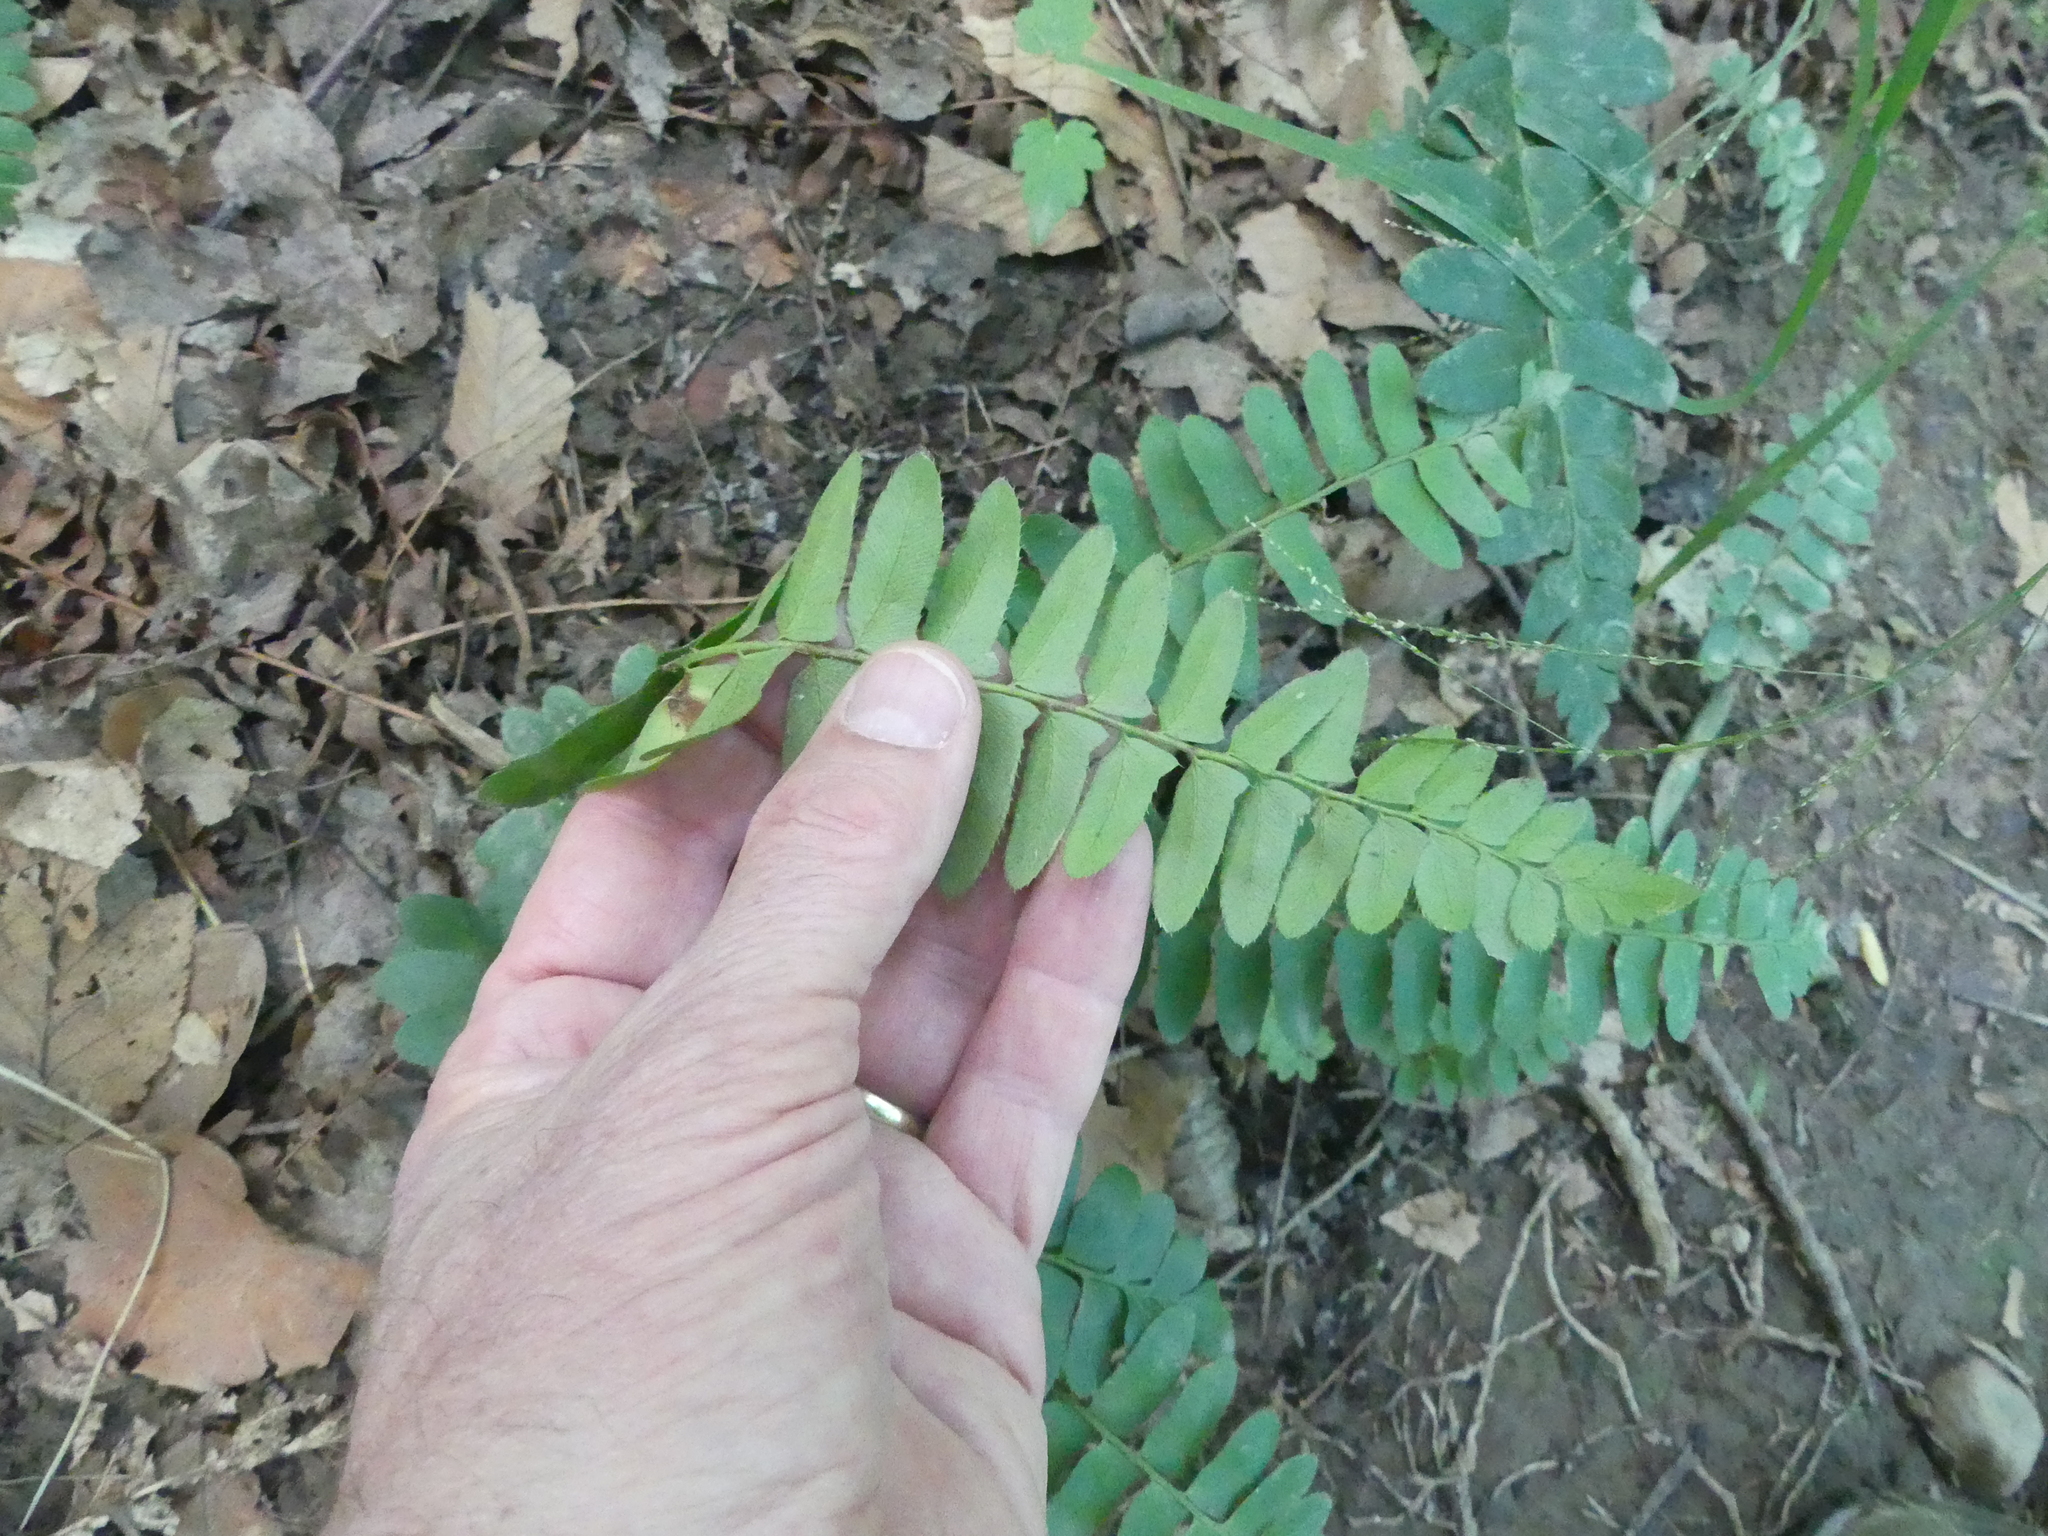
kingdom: Plantae
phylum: Tracheophyta
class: Polypodiopsida
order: Polypodiales
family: Dryopteridaceae
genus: Polystichum
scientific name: Polystichum acrostichoides
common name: Christmas fern
